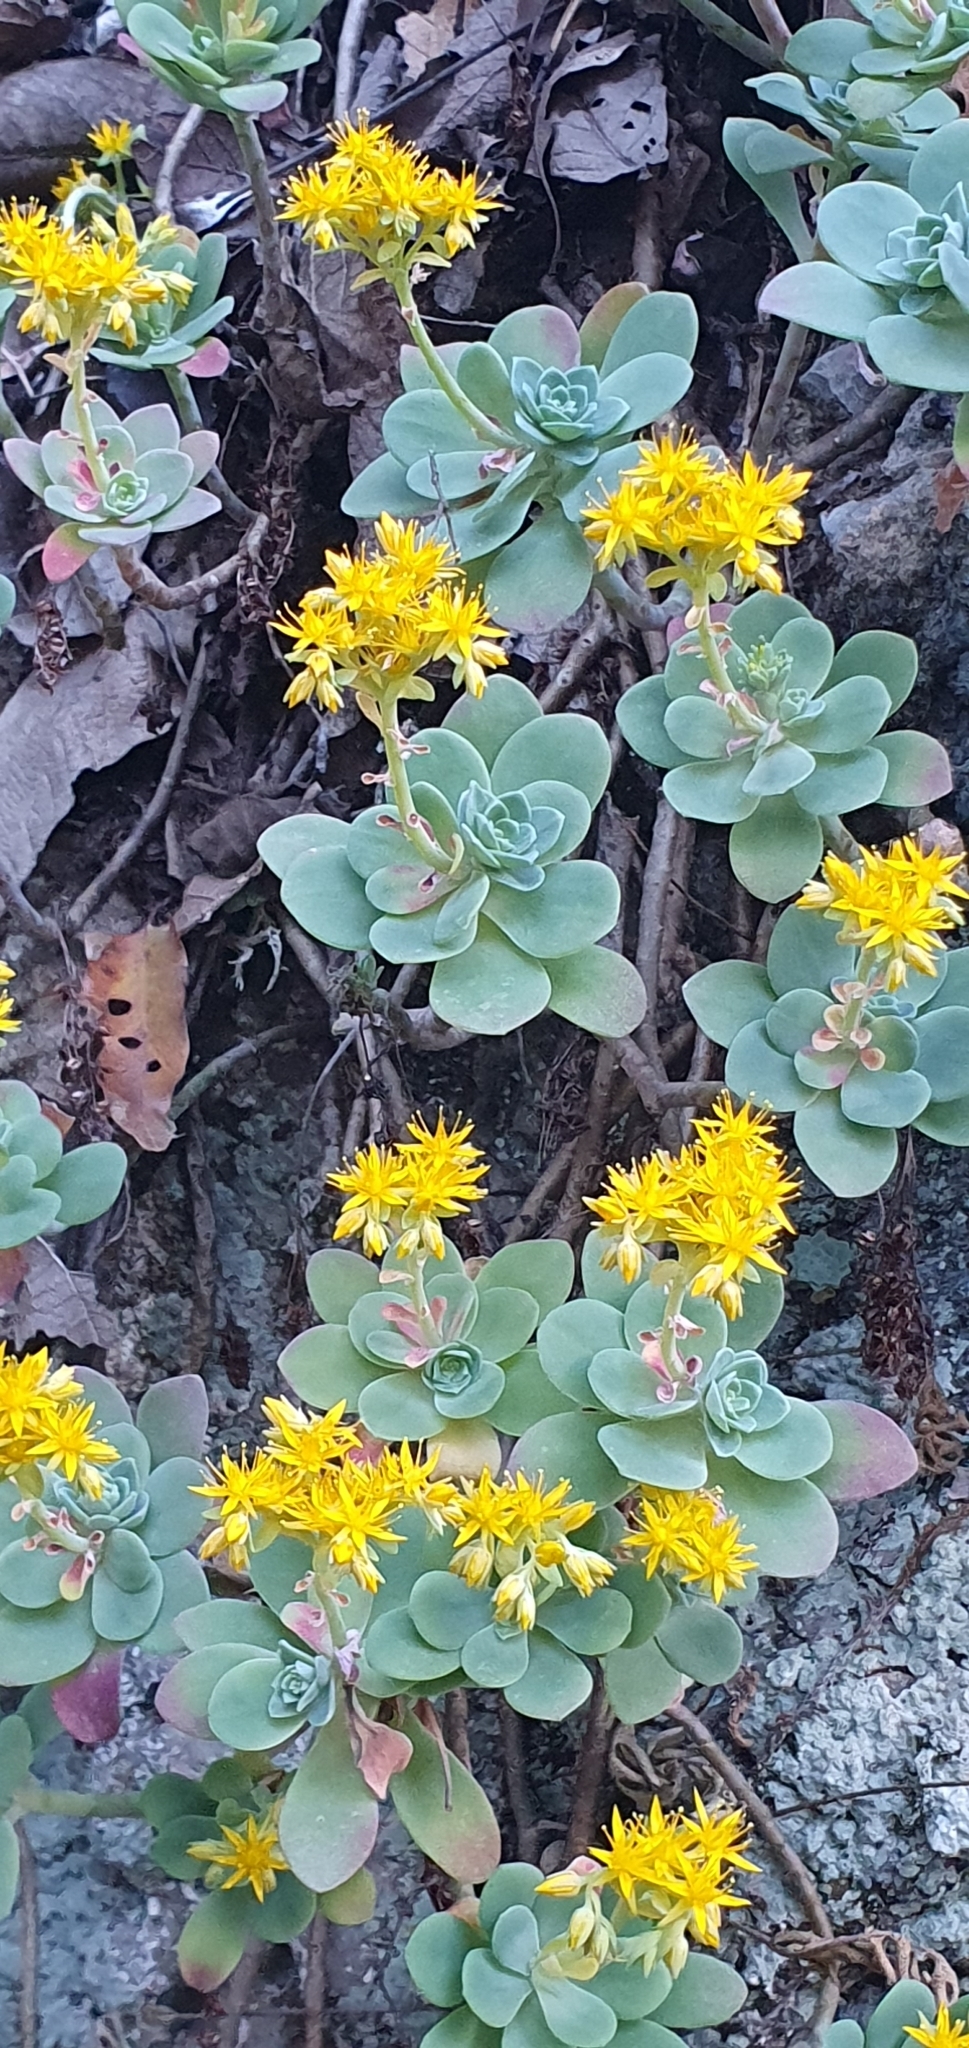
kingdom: Plantae
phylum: Tracheophyta
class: Magnoliopsida
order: Saxifragales
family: Crassulaceae
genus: Sedum
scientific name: Sedum palmeri
